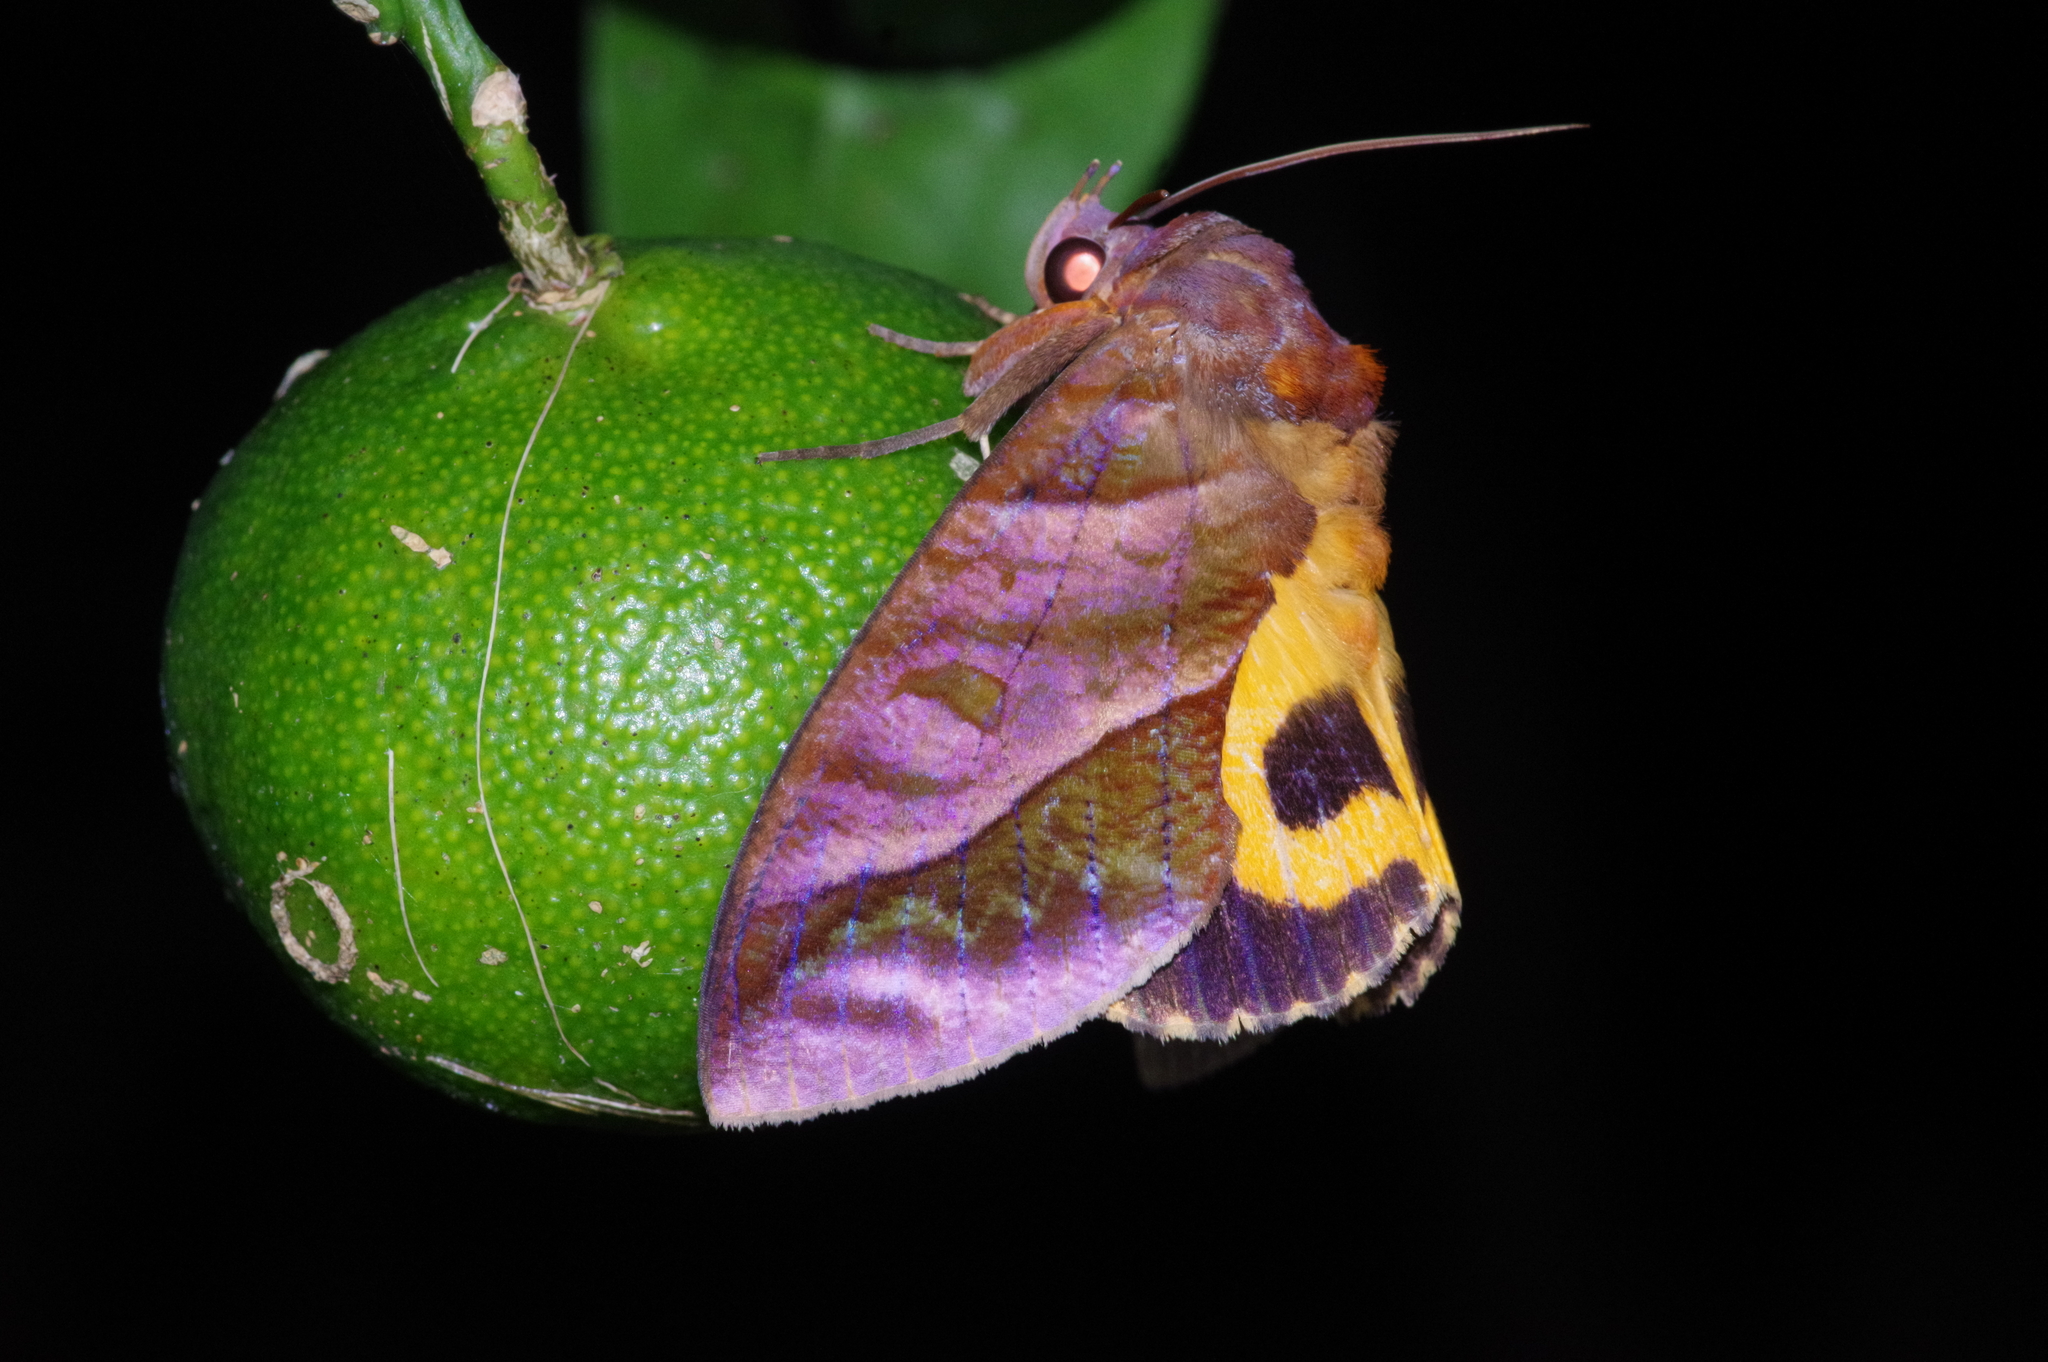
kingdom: Animalia
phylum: Arthropoda
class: Insecta
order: Lepidoptera
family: Erebidae
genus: Eudocima
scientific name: Eudocima homaena
